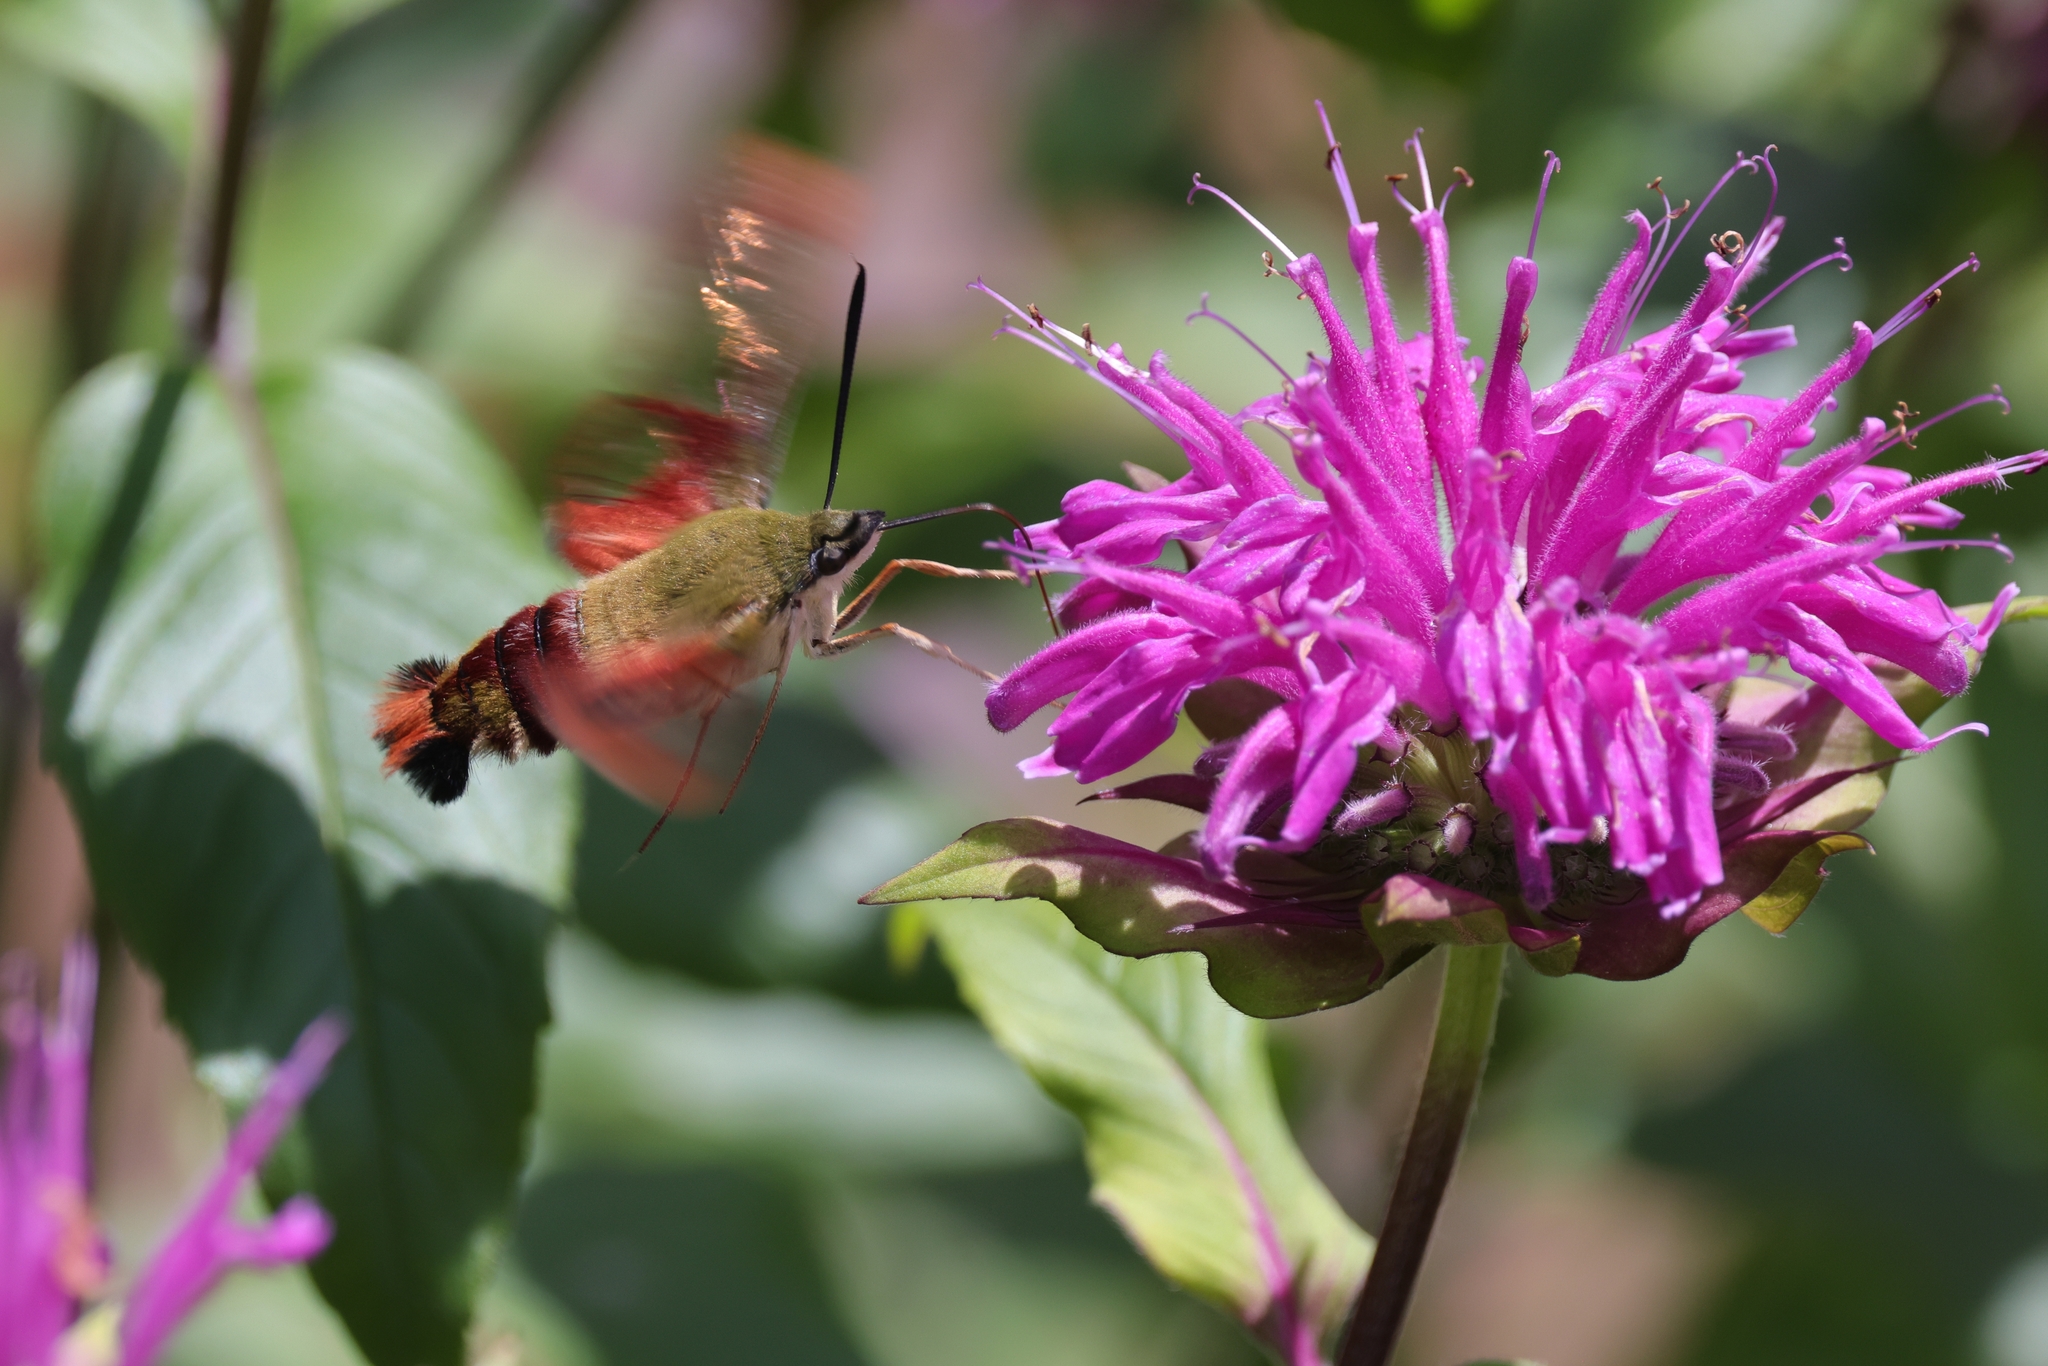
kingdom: Animalia
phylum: Arthropoda
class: Insecta
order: Lepidoptera
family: Sphingidae
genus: Hemaris
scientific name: Hemaris thysbe
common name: Common clear-wing
